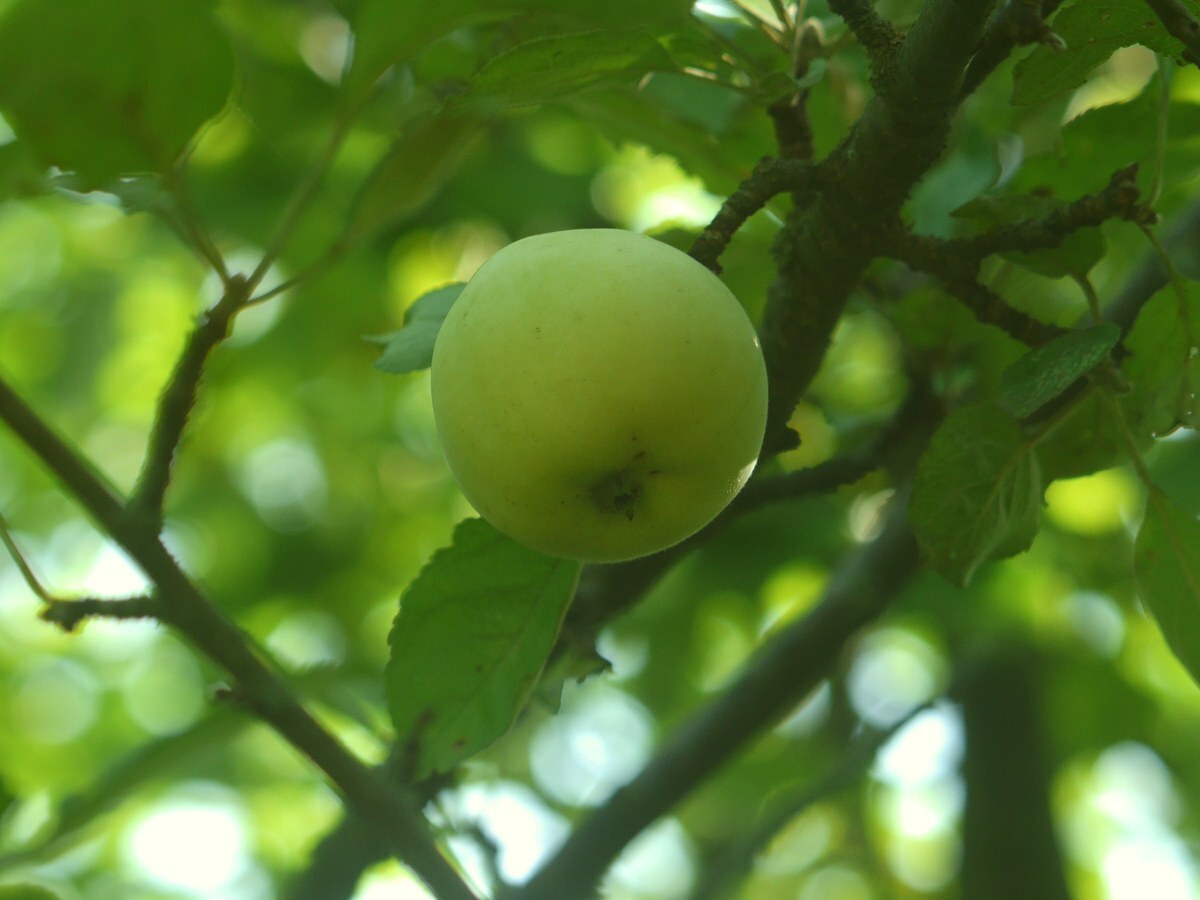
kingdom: Plantae
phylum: Tracheophyta
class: Magnoliopsida
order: Rosales
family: Rosaceae
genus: Malus
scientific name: Malus domestica
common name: Apple
